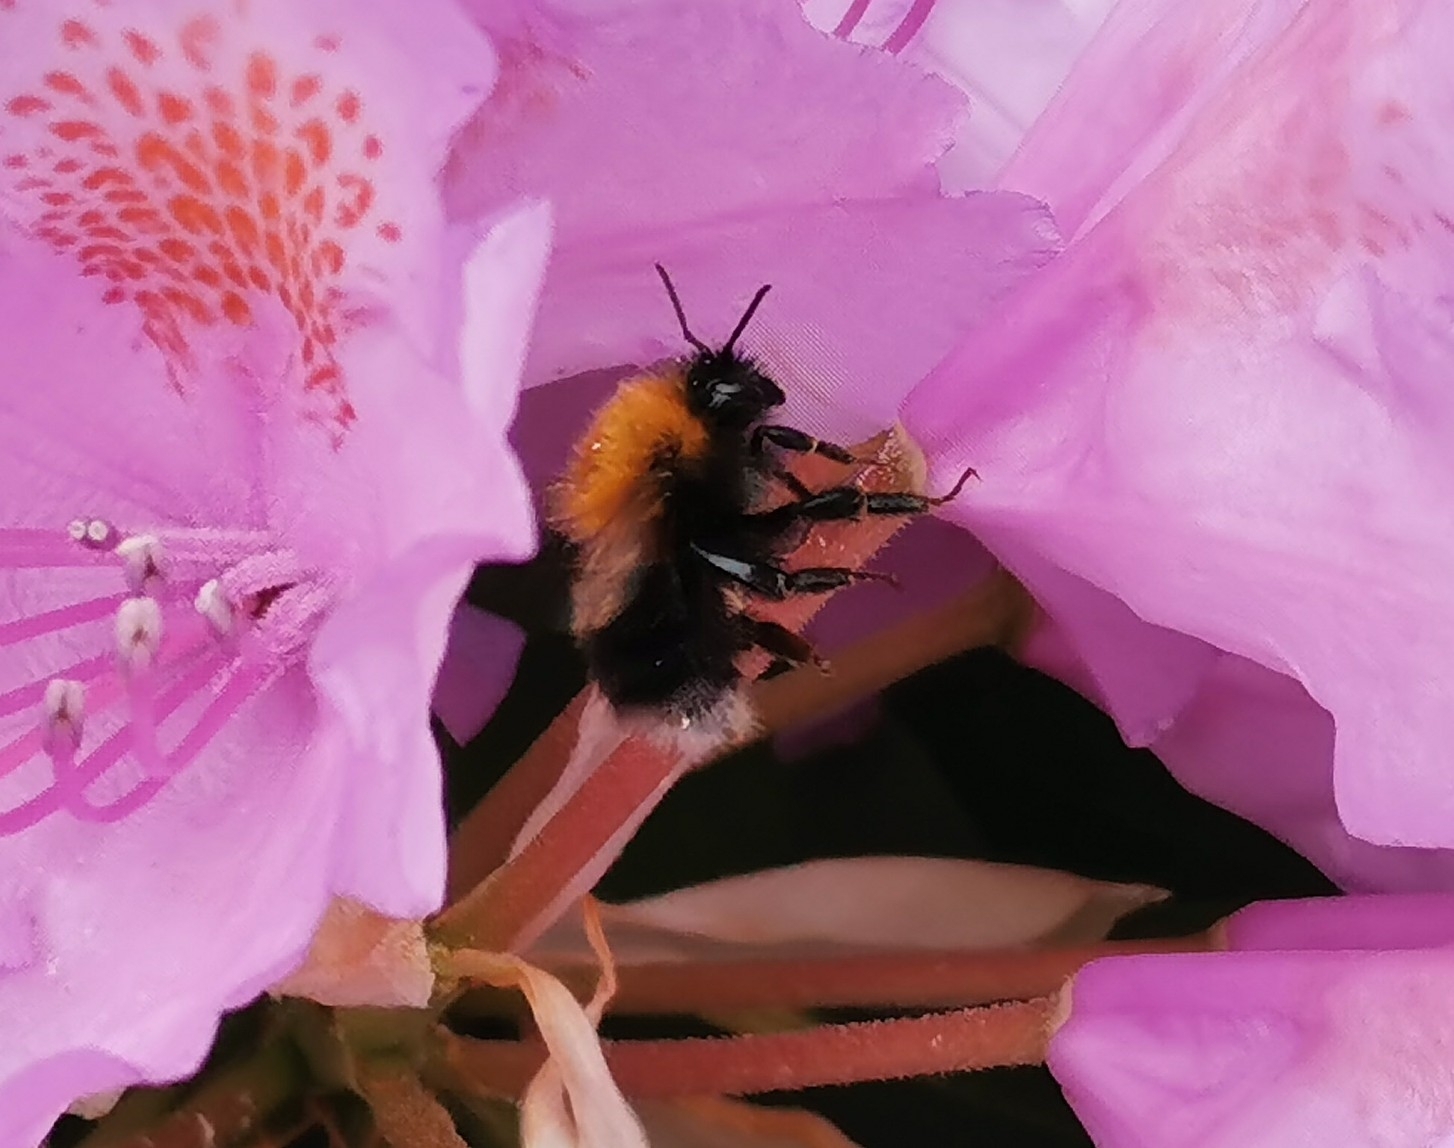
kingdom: Animalia
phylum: Arthropoda
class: Insecta
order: Hymenoptera
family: Apidae
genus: Bombus
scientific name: Bombus hypnorum
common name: New garden bumblebee
